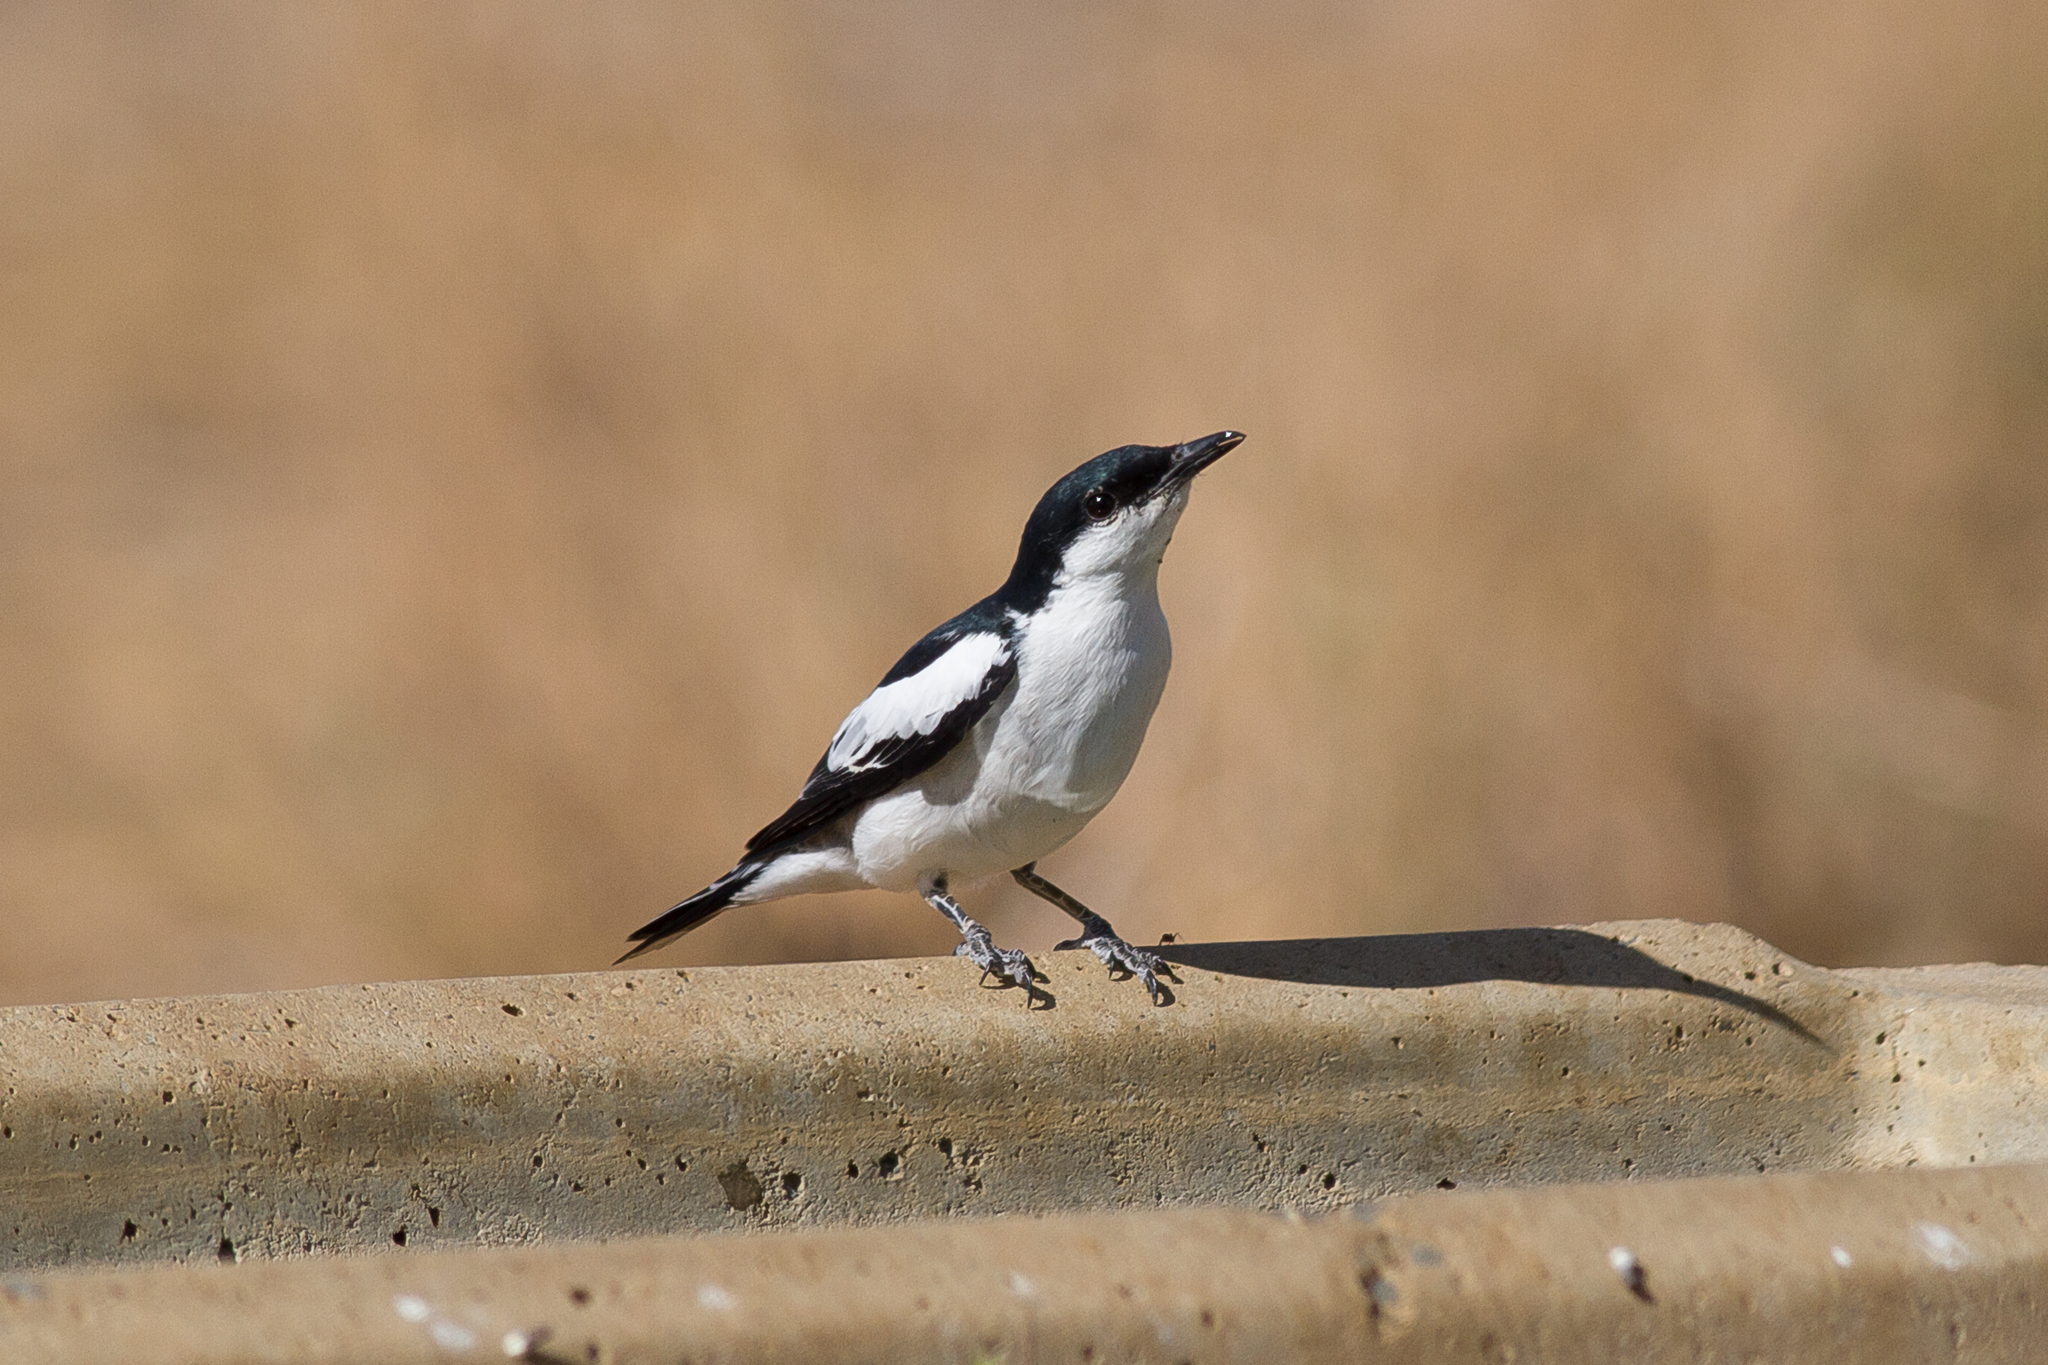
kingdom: Animalia
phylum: Chordata
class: Aves
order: Passeriformes
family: Campephagidae
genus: Lalage
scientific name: Lalage tricolor
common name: White-winged triller
